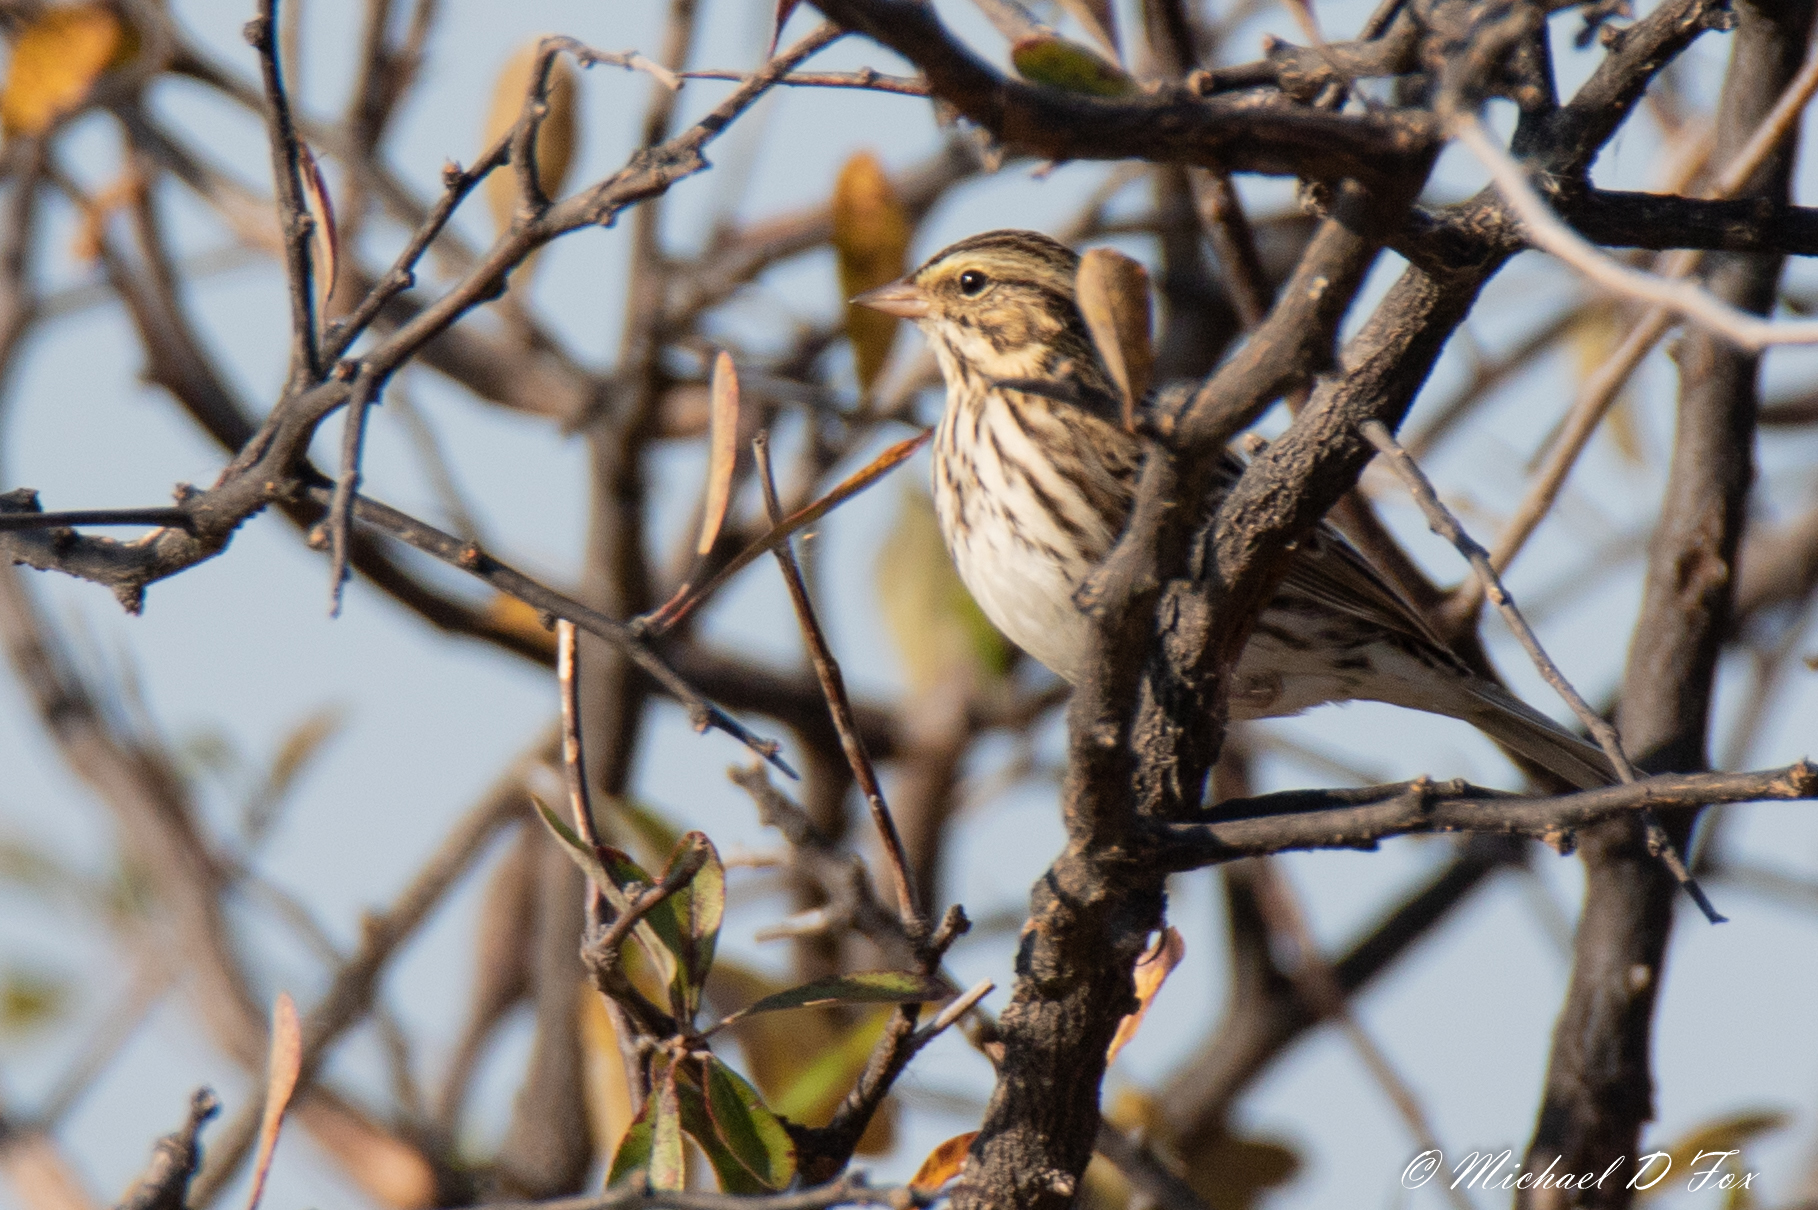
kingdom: Animalia
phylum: Chordata
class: Aves
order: Passeriformes
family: Passerellidae
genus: Passerculus
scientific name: Passerculus sandwichensis
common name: Savannah sparrow
